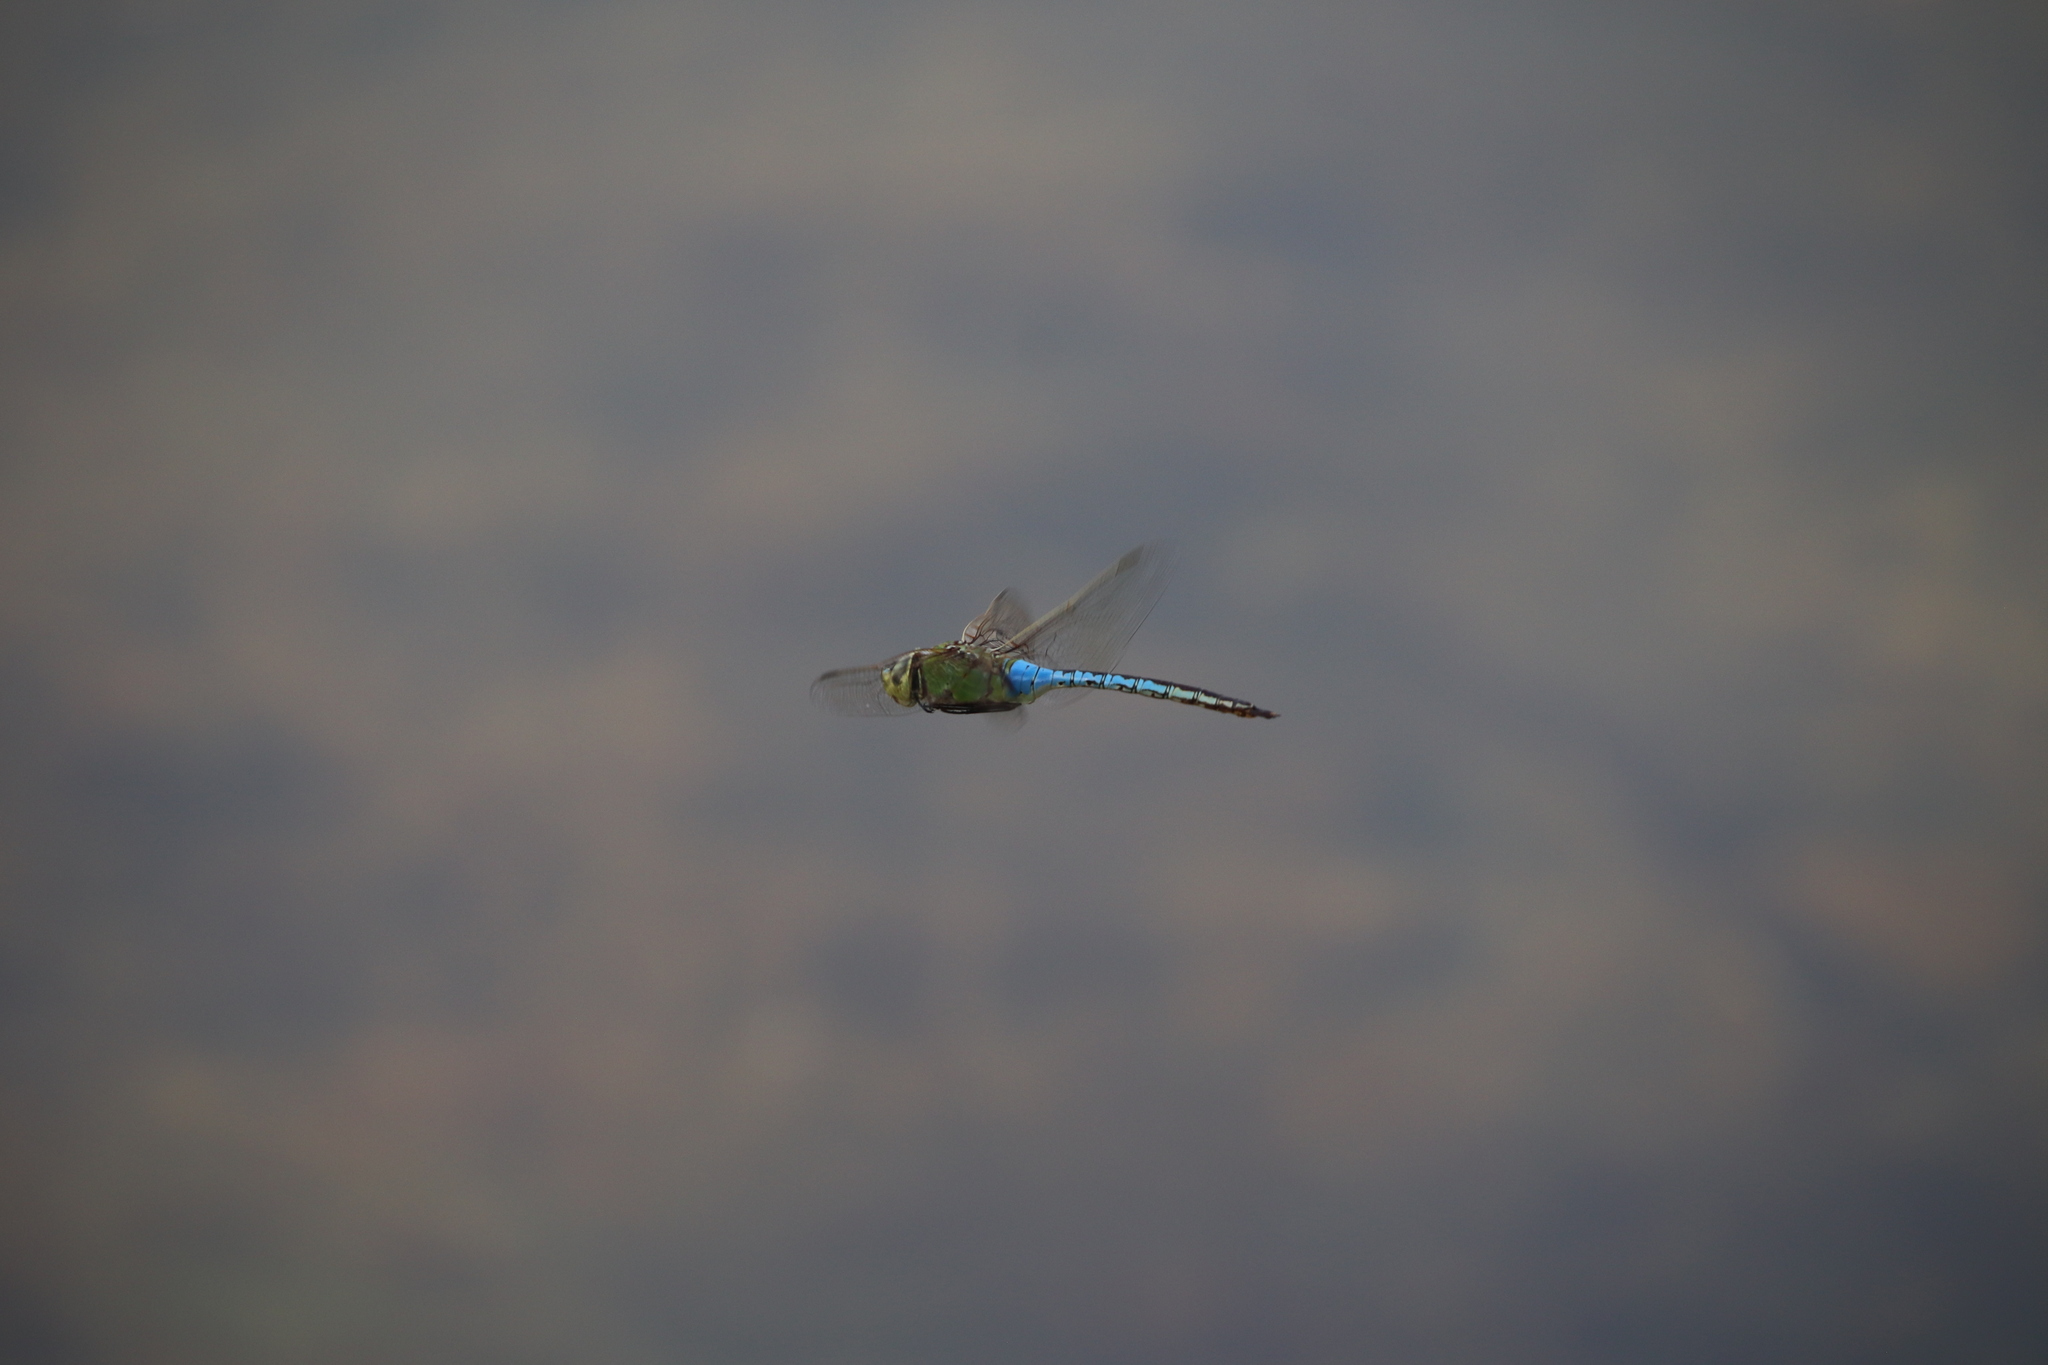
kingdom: Animalia
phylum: Arthropoda
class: Insecta
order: Odonata
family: Aeshnidae
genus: Anax
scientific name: Anax junius
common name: Common green darner
